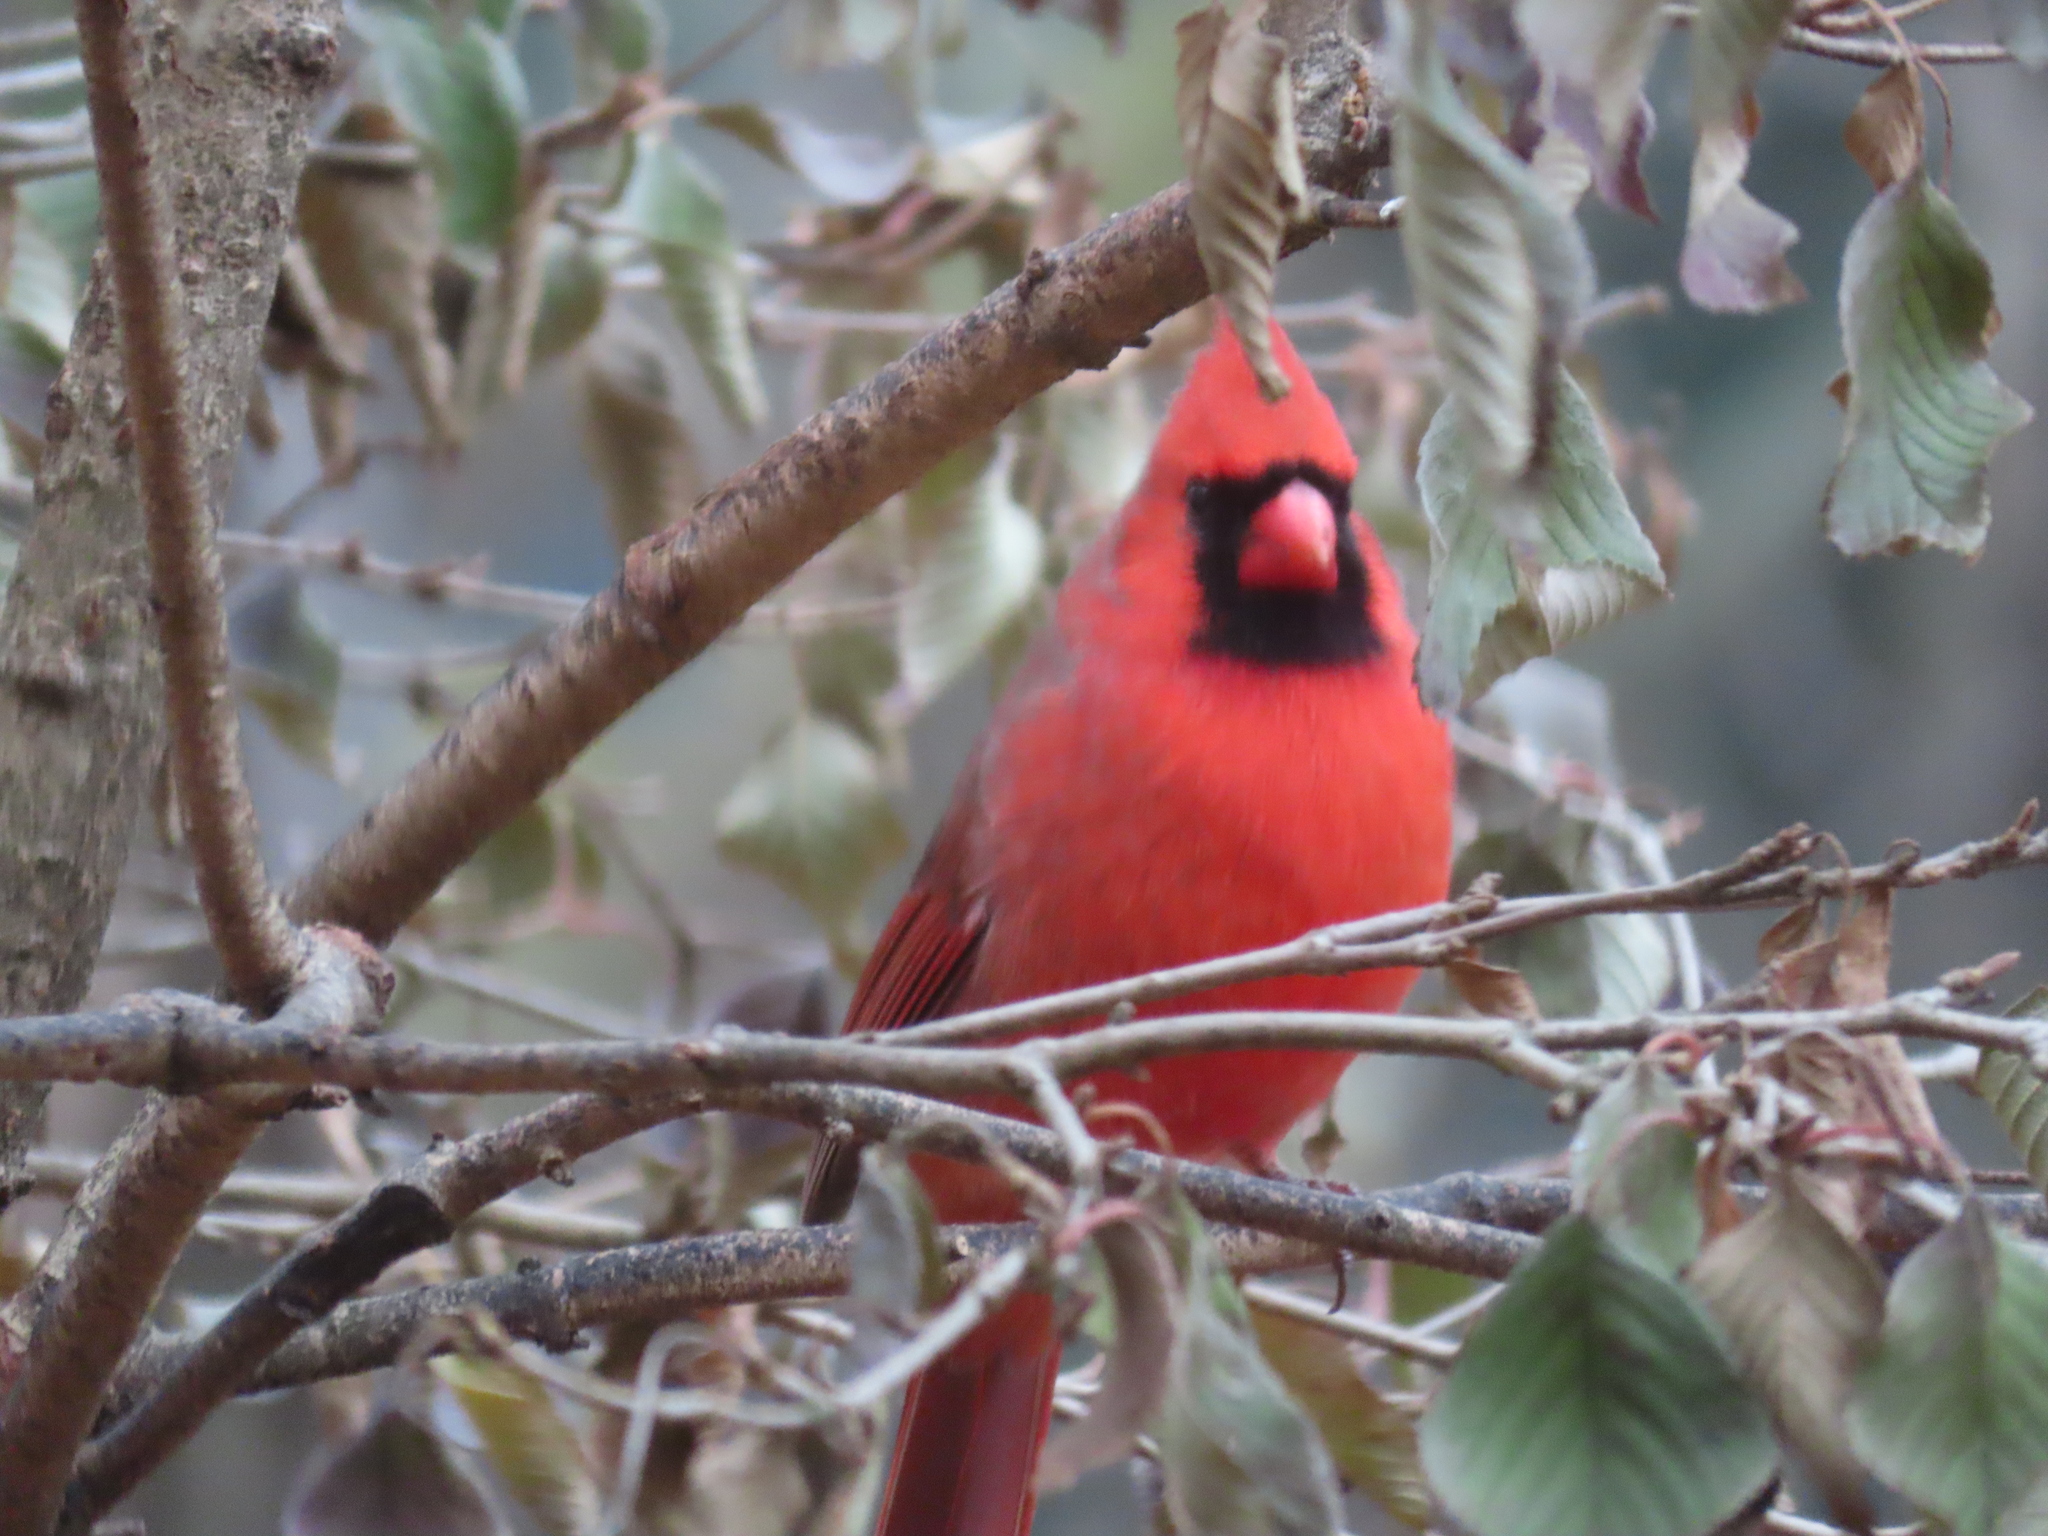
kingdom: Animalia
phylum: Chordata
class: Aves
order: Passeriformes
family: Cardinalidae
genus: Cardinalis
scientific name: Cardinalis cardinalis
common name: Northern cardinal
